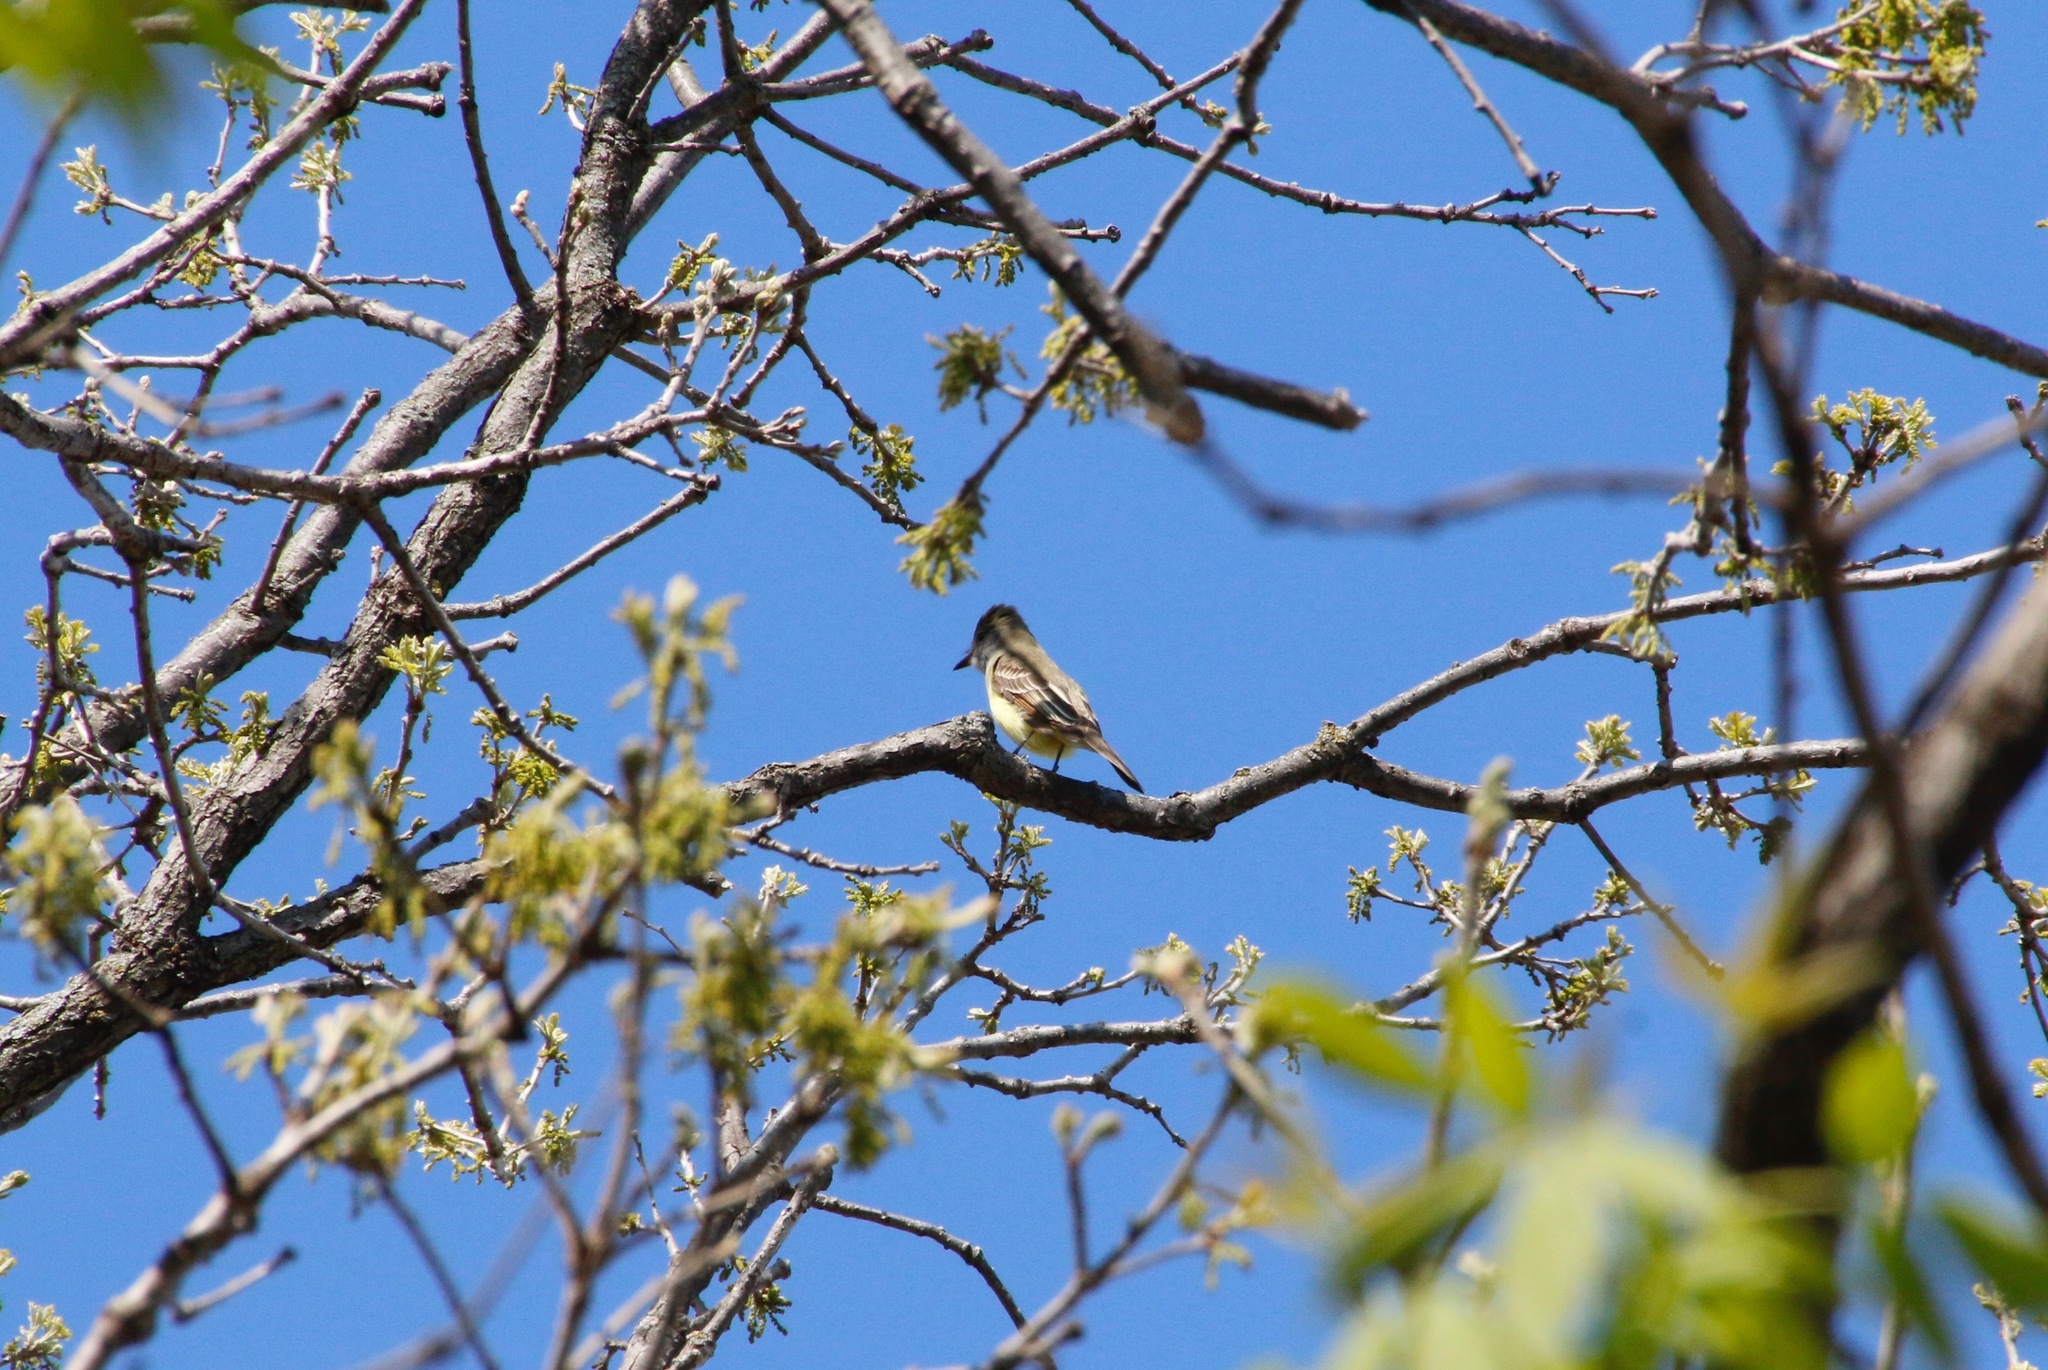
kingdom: Animalia
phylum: Chordata
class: Aves
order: Passeriformes
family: Tyrannidae
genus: Myiarchus
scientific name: Myiarchus crinitus
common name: Great crested flycatcher
